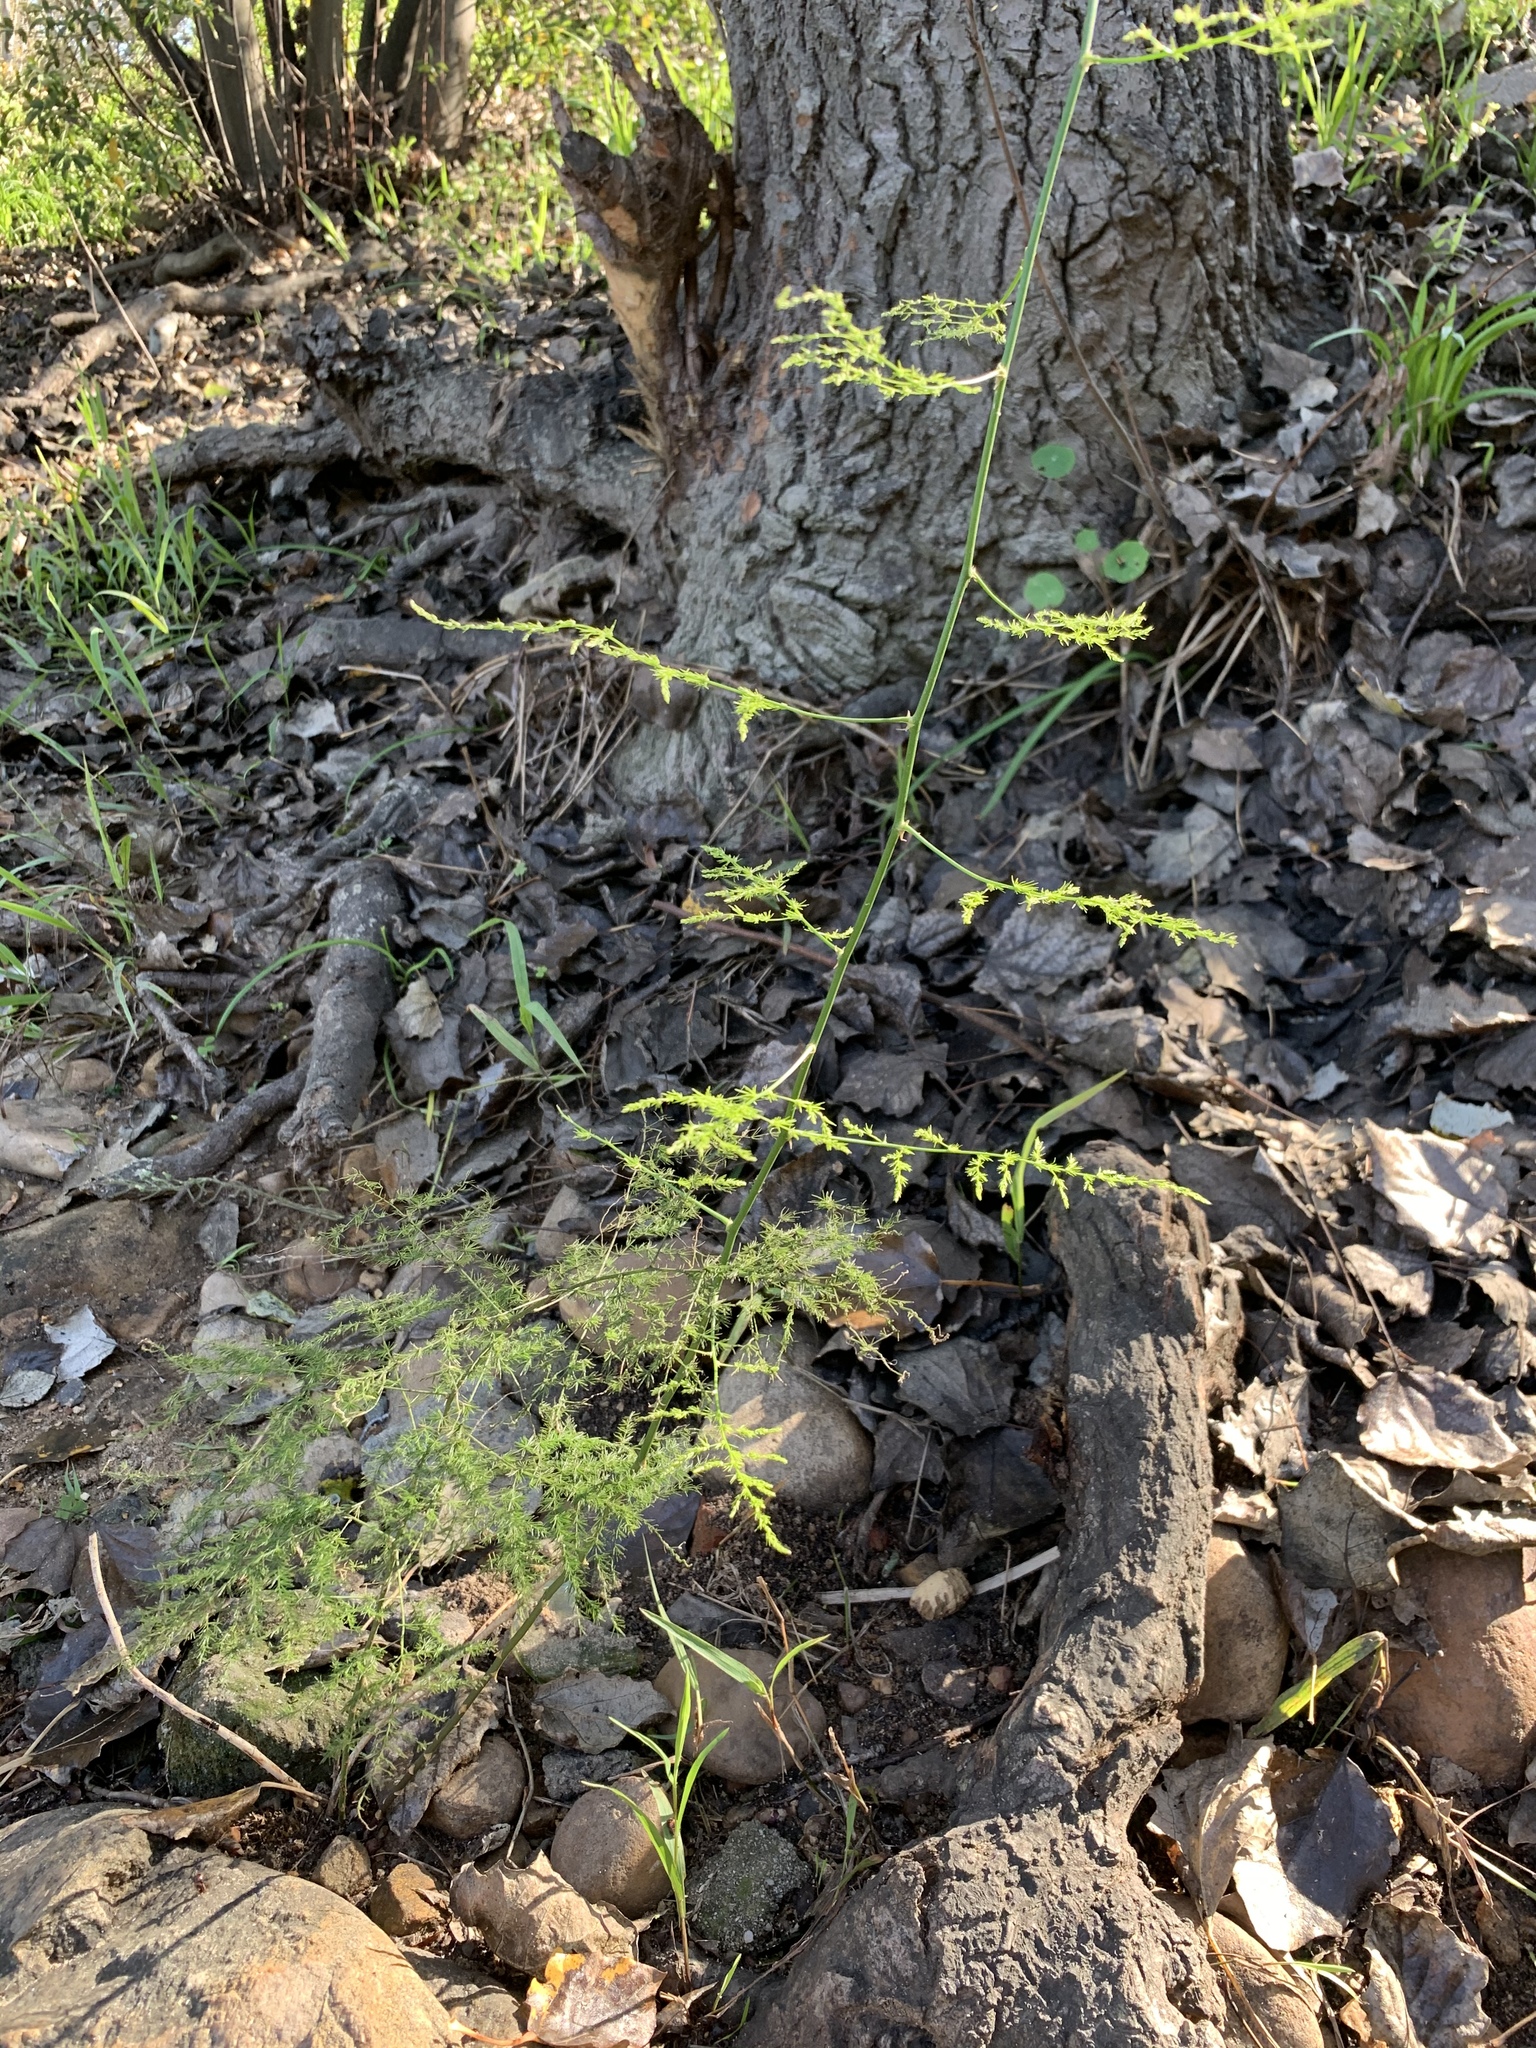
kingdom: Plantae
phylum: Tracheophyta
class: Liliopsida
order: Asparagales
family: Asparagaceae
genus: Asparagus
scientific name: Asparagus setaceus
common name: Common asparagus fern
